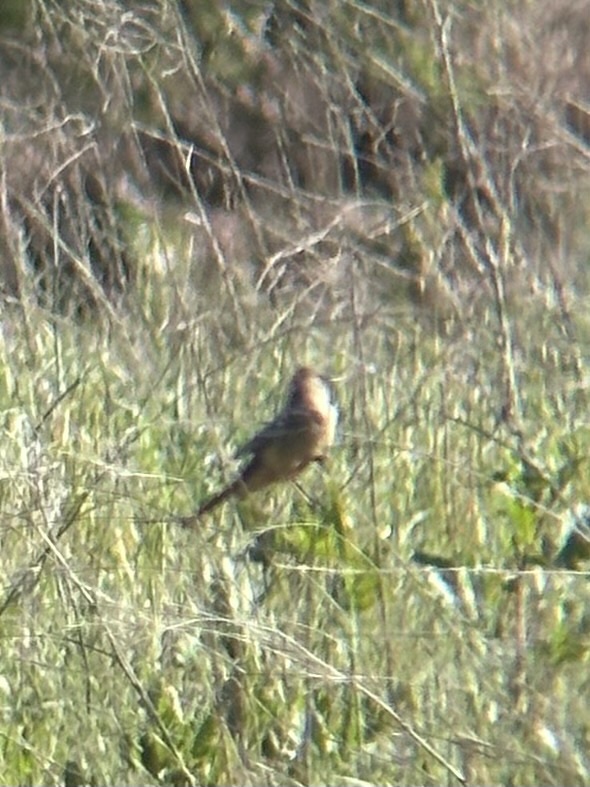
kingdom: Animalia
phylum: Chordata
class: Aves
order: Passeriformes
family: Tyrannidae
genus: Sayornis
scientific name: Sayornis saya
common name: Say's phoebe
